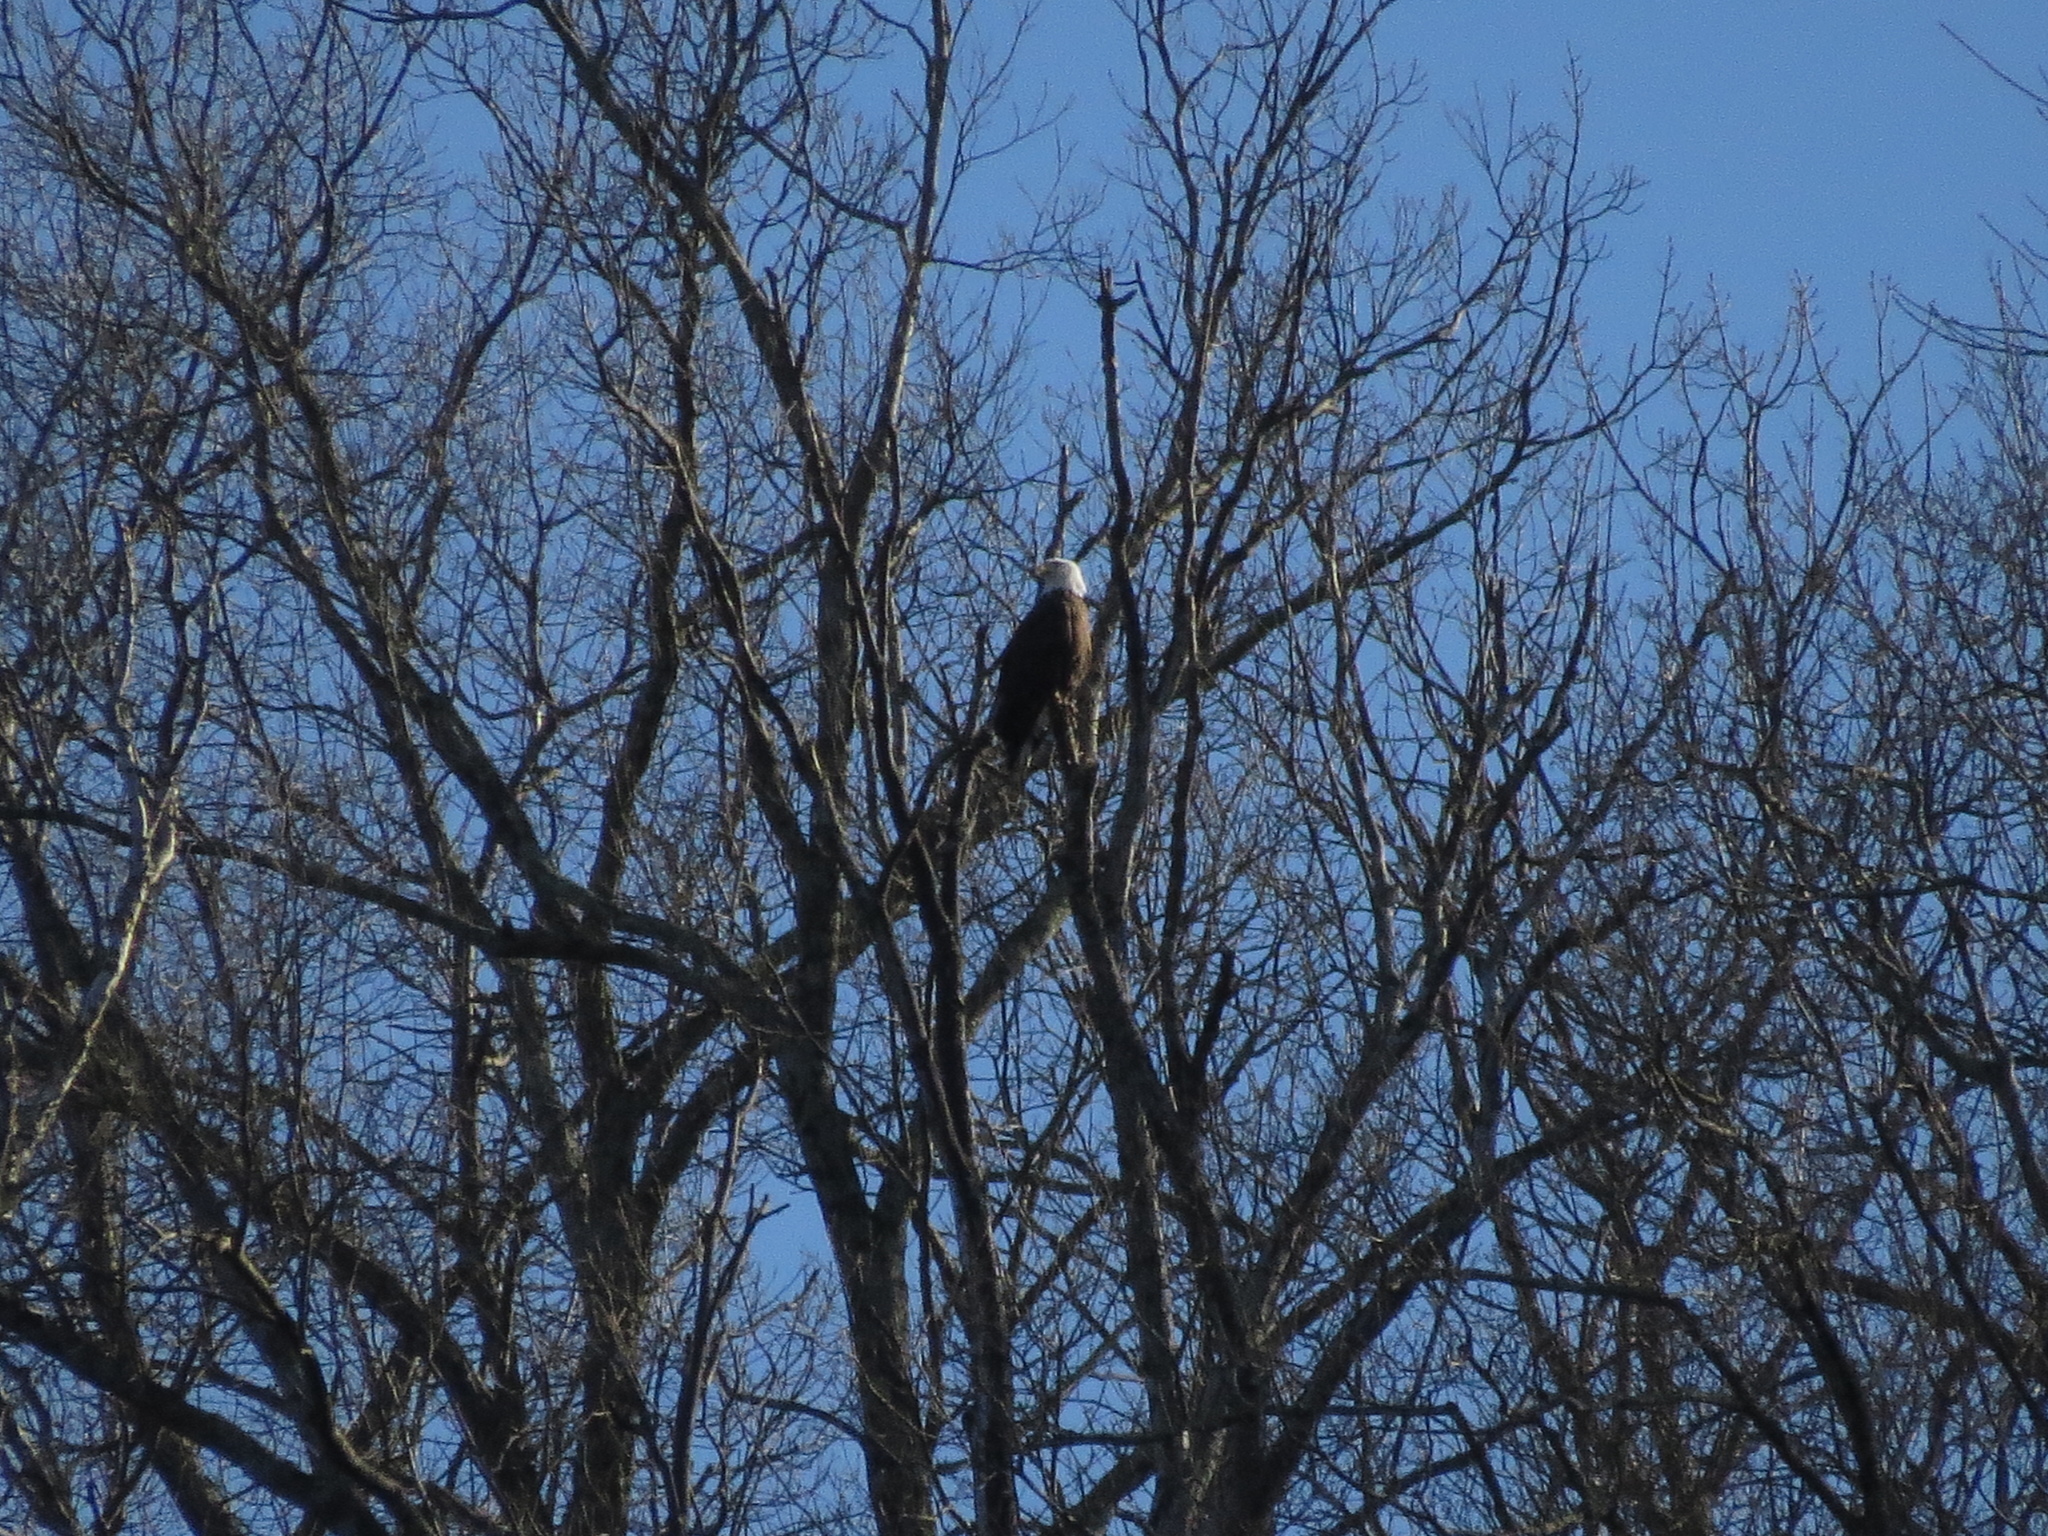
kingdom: Animalia
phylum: Chordata
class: Aves
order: Accipitriformes
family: Accipitridae
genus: Haliaeetus
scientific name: Haliaeetus leucocephalus
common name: Bald eagle
